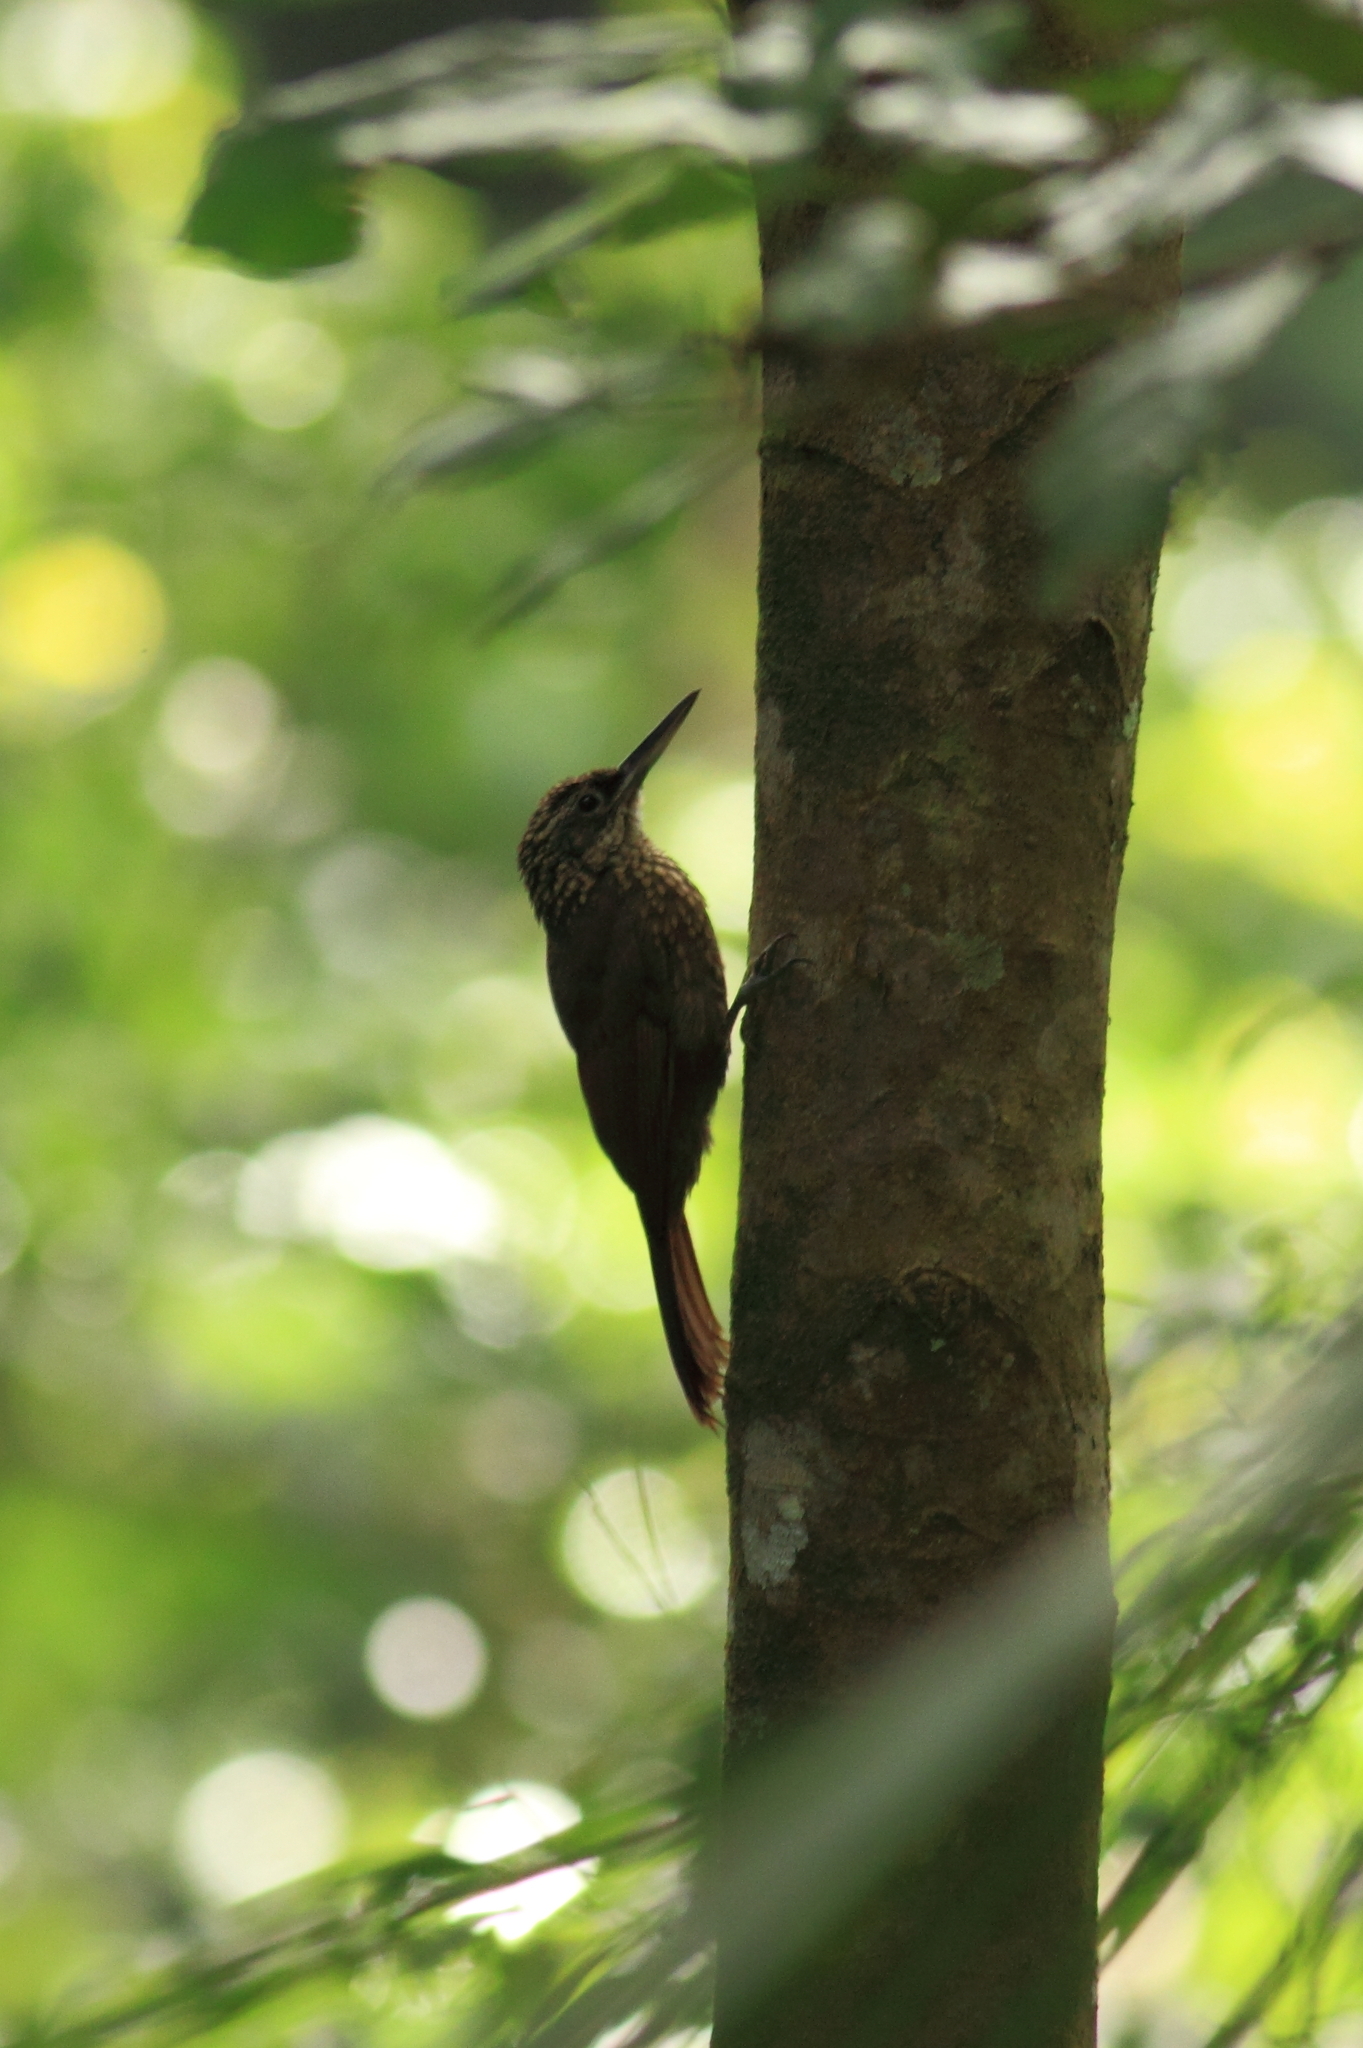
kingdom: Animalia
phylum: Chordata
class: Aves
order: Passeriformes
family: Furnariidae
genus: Xiphorhynchus
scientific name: Xiphorhynchus susurrans
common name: Cocoa woodcreeper
